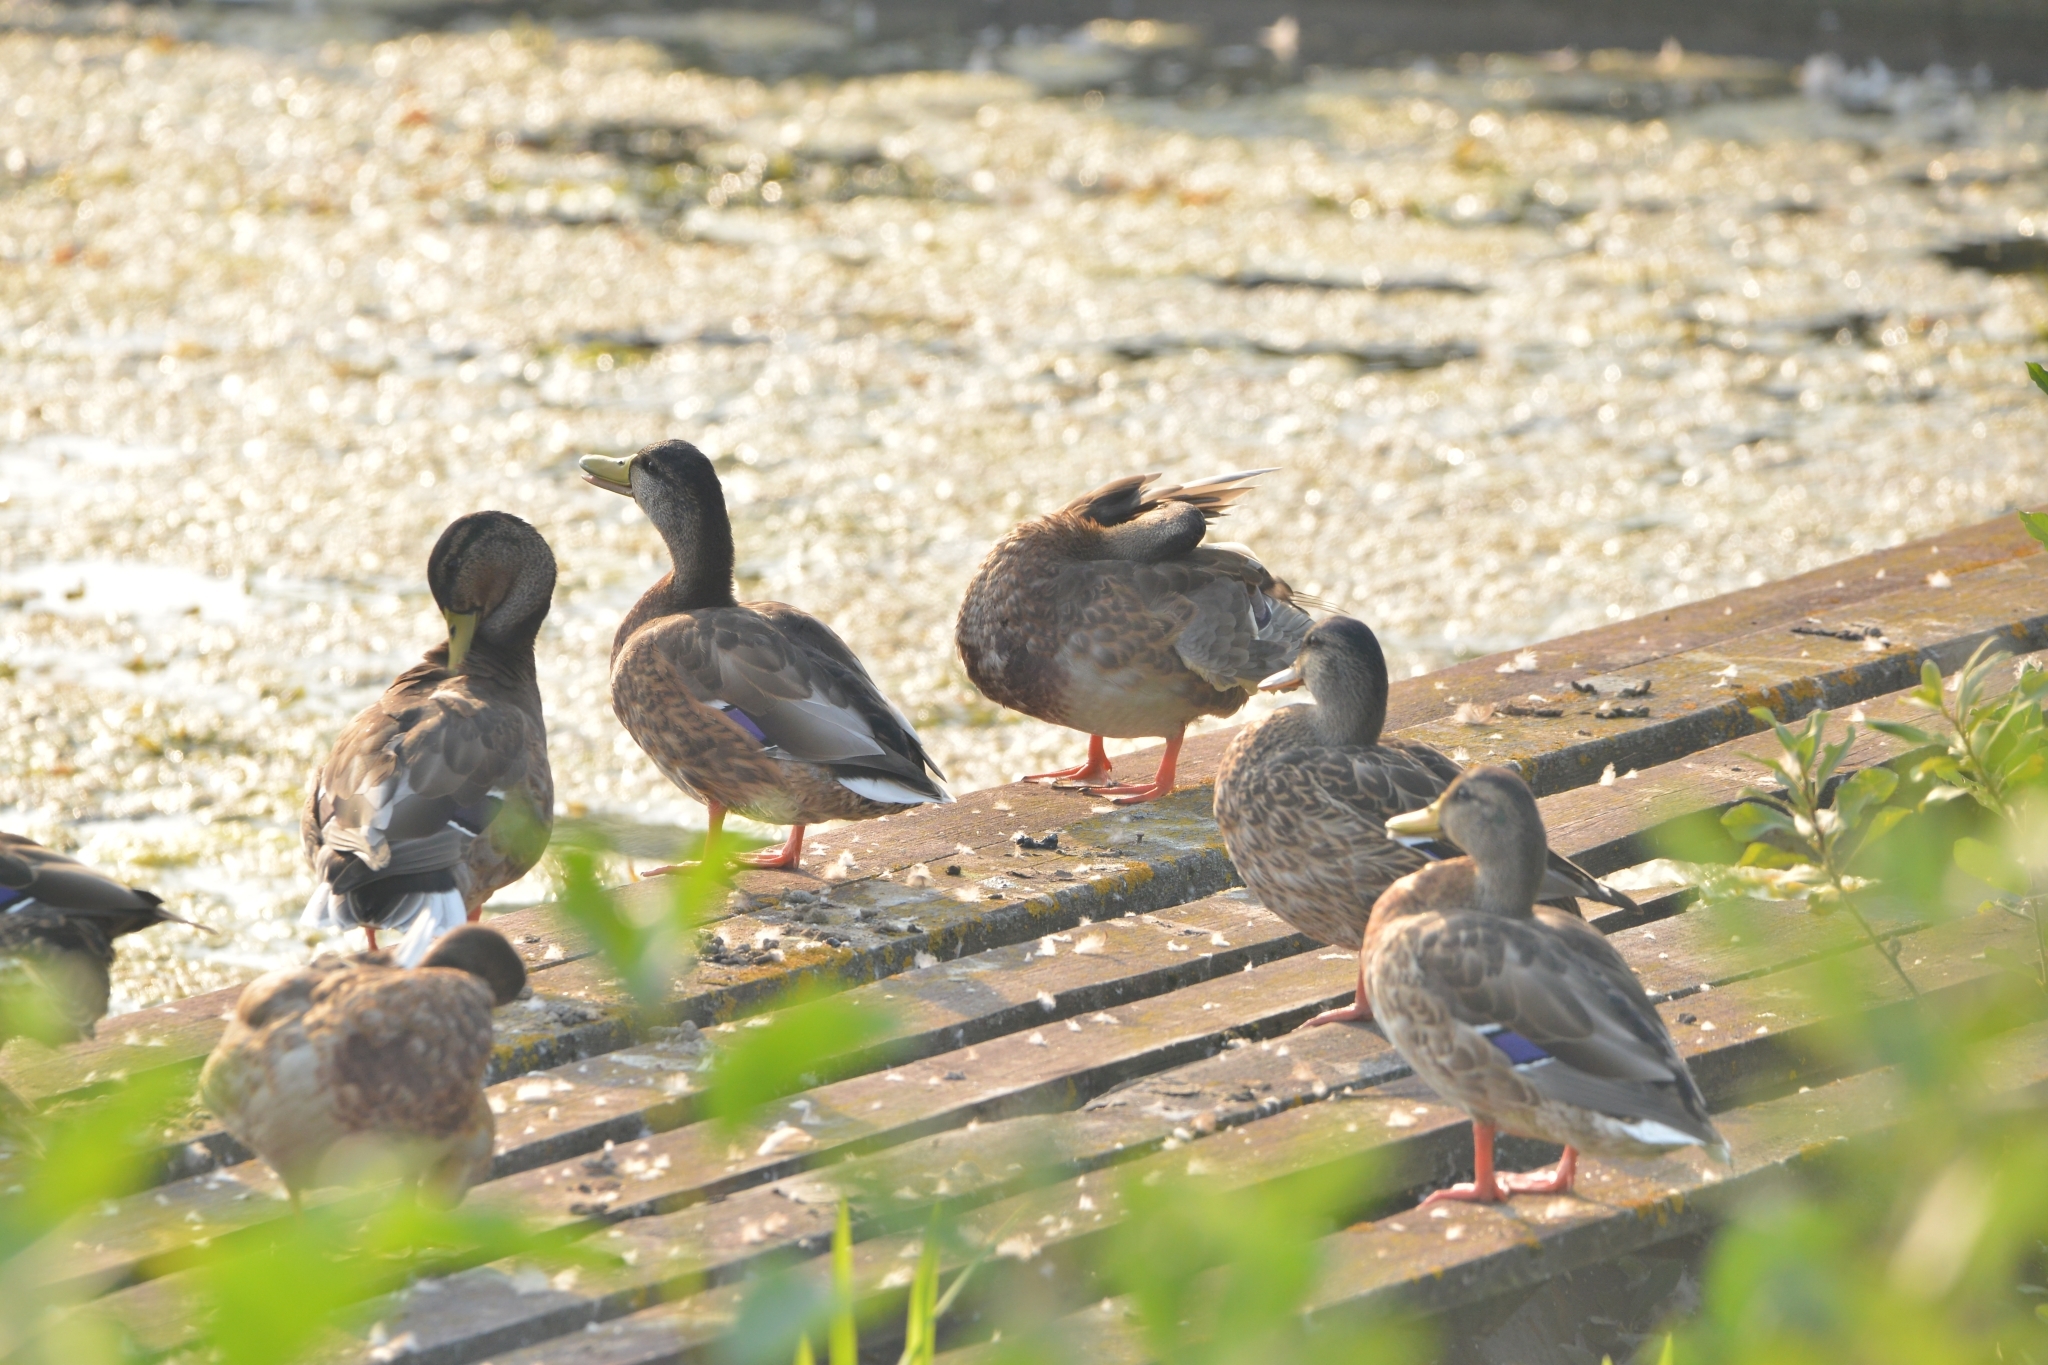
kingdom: Animalia
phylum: Chordata
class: Aves
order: Anseriformes
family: Anatidae
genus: Anas
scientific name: Anas platyrhynchos
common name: Mallard
